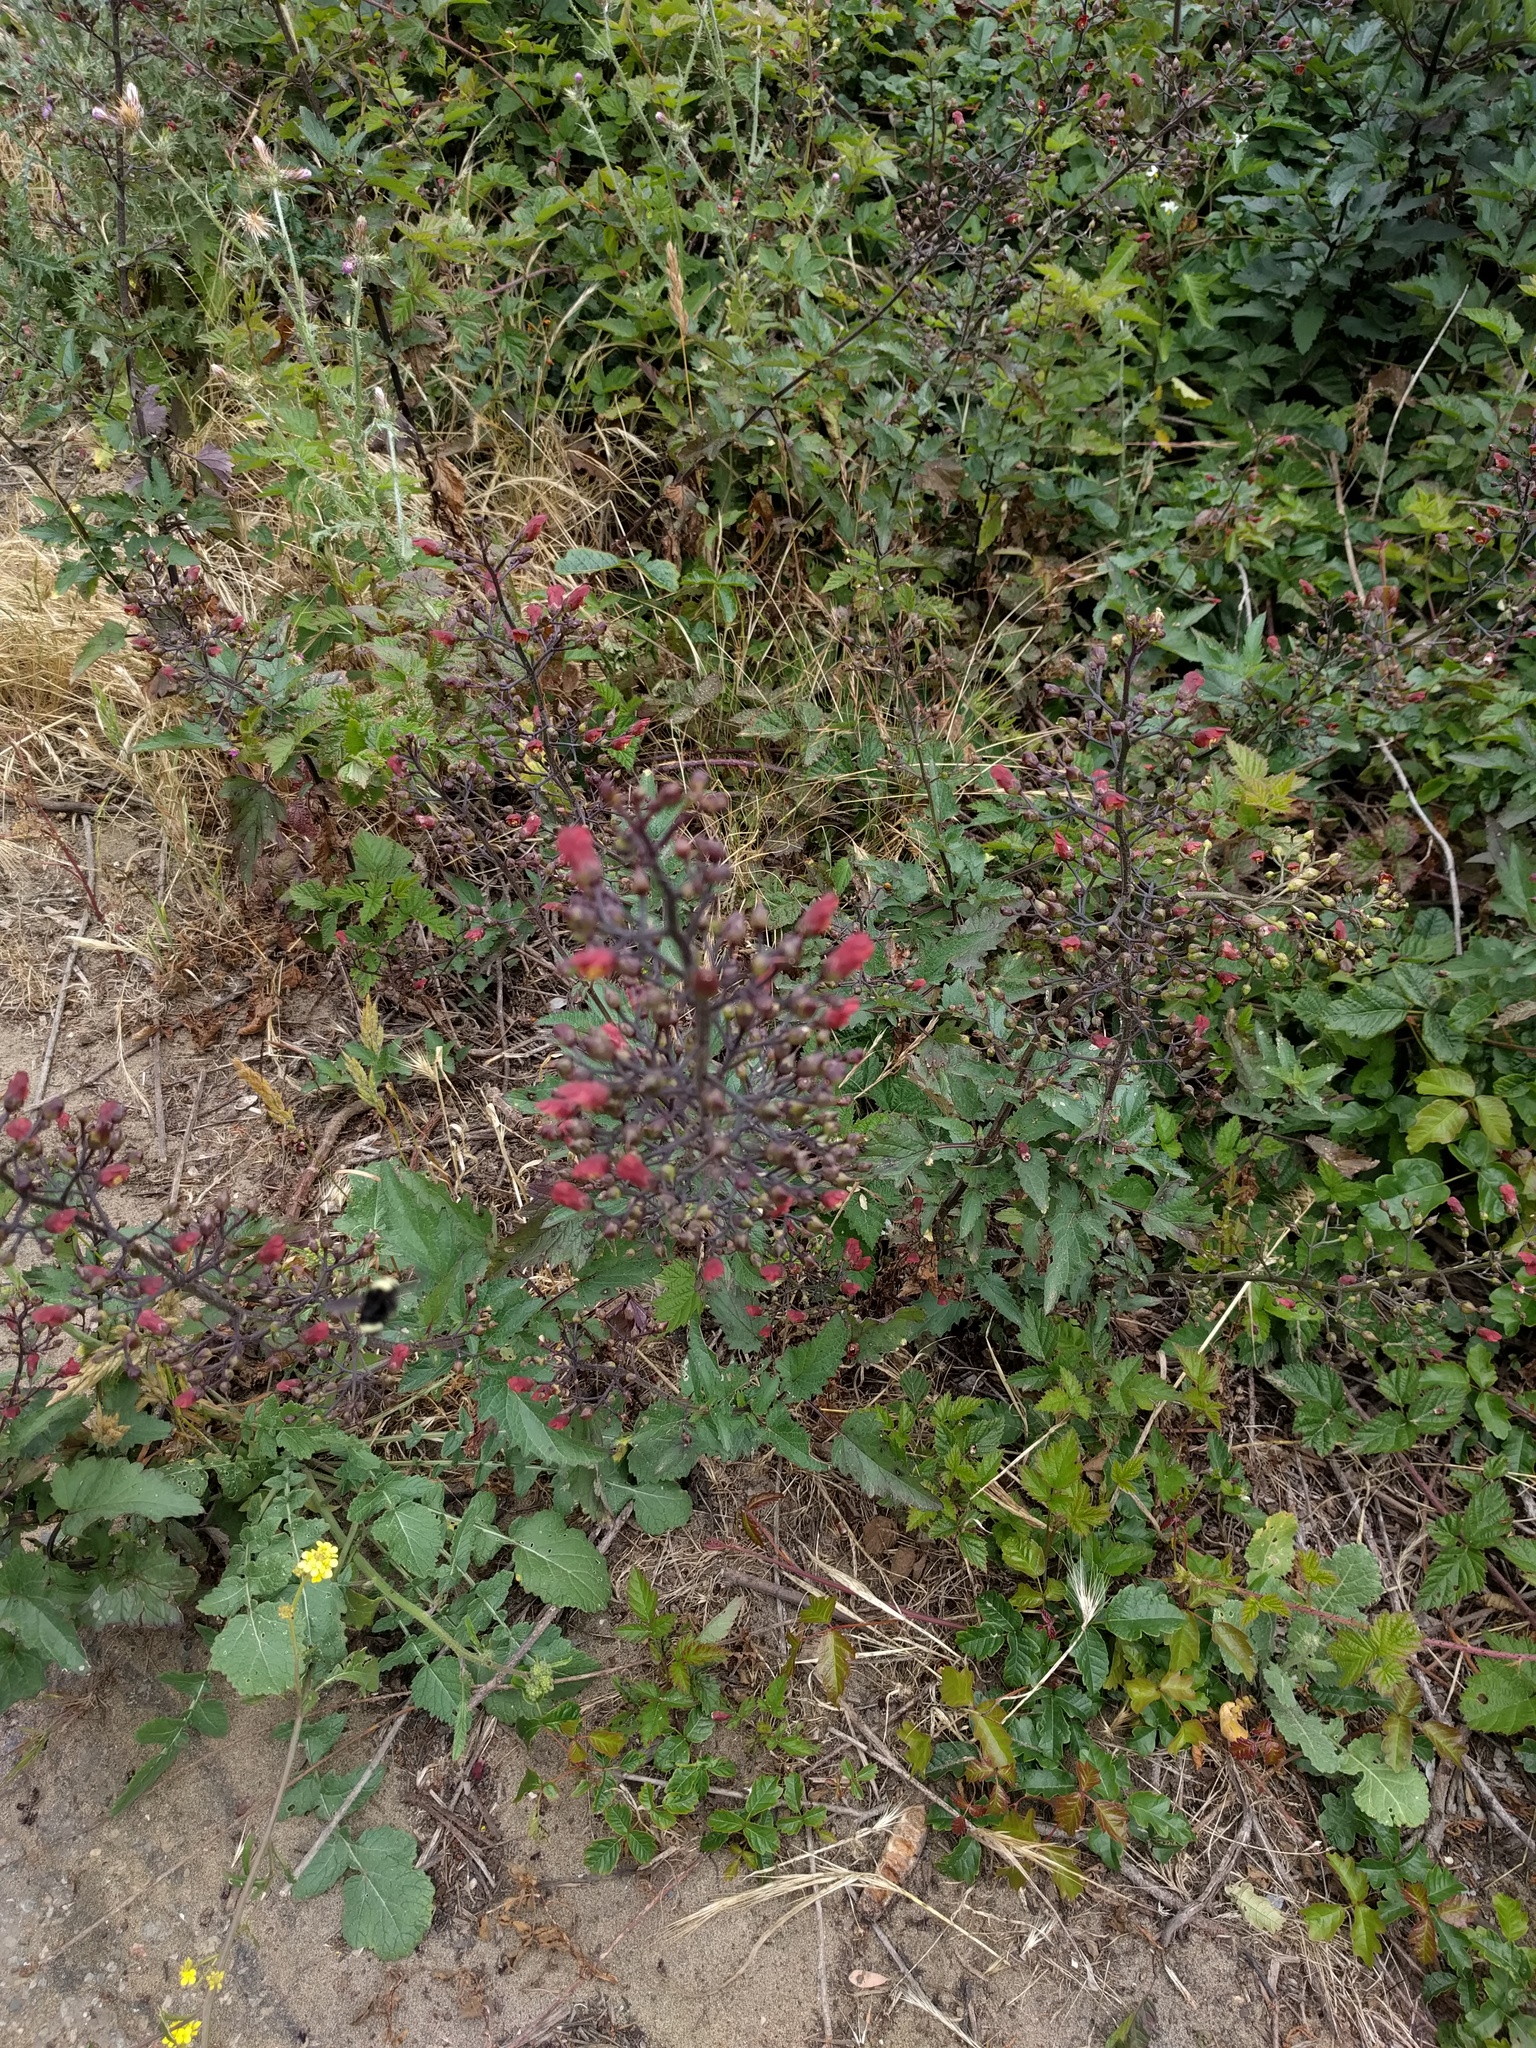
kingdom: Plantae
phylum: Tracheophyta
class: Magnoliopsida
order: Lamiales
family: Scrophulariaceae
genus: Scrophularia
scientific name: Scrophularia californica
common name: California figwort
